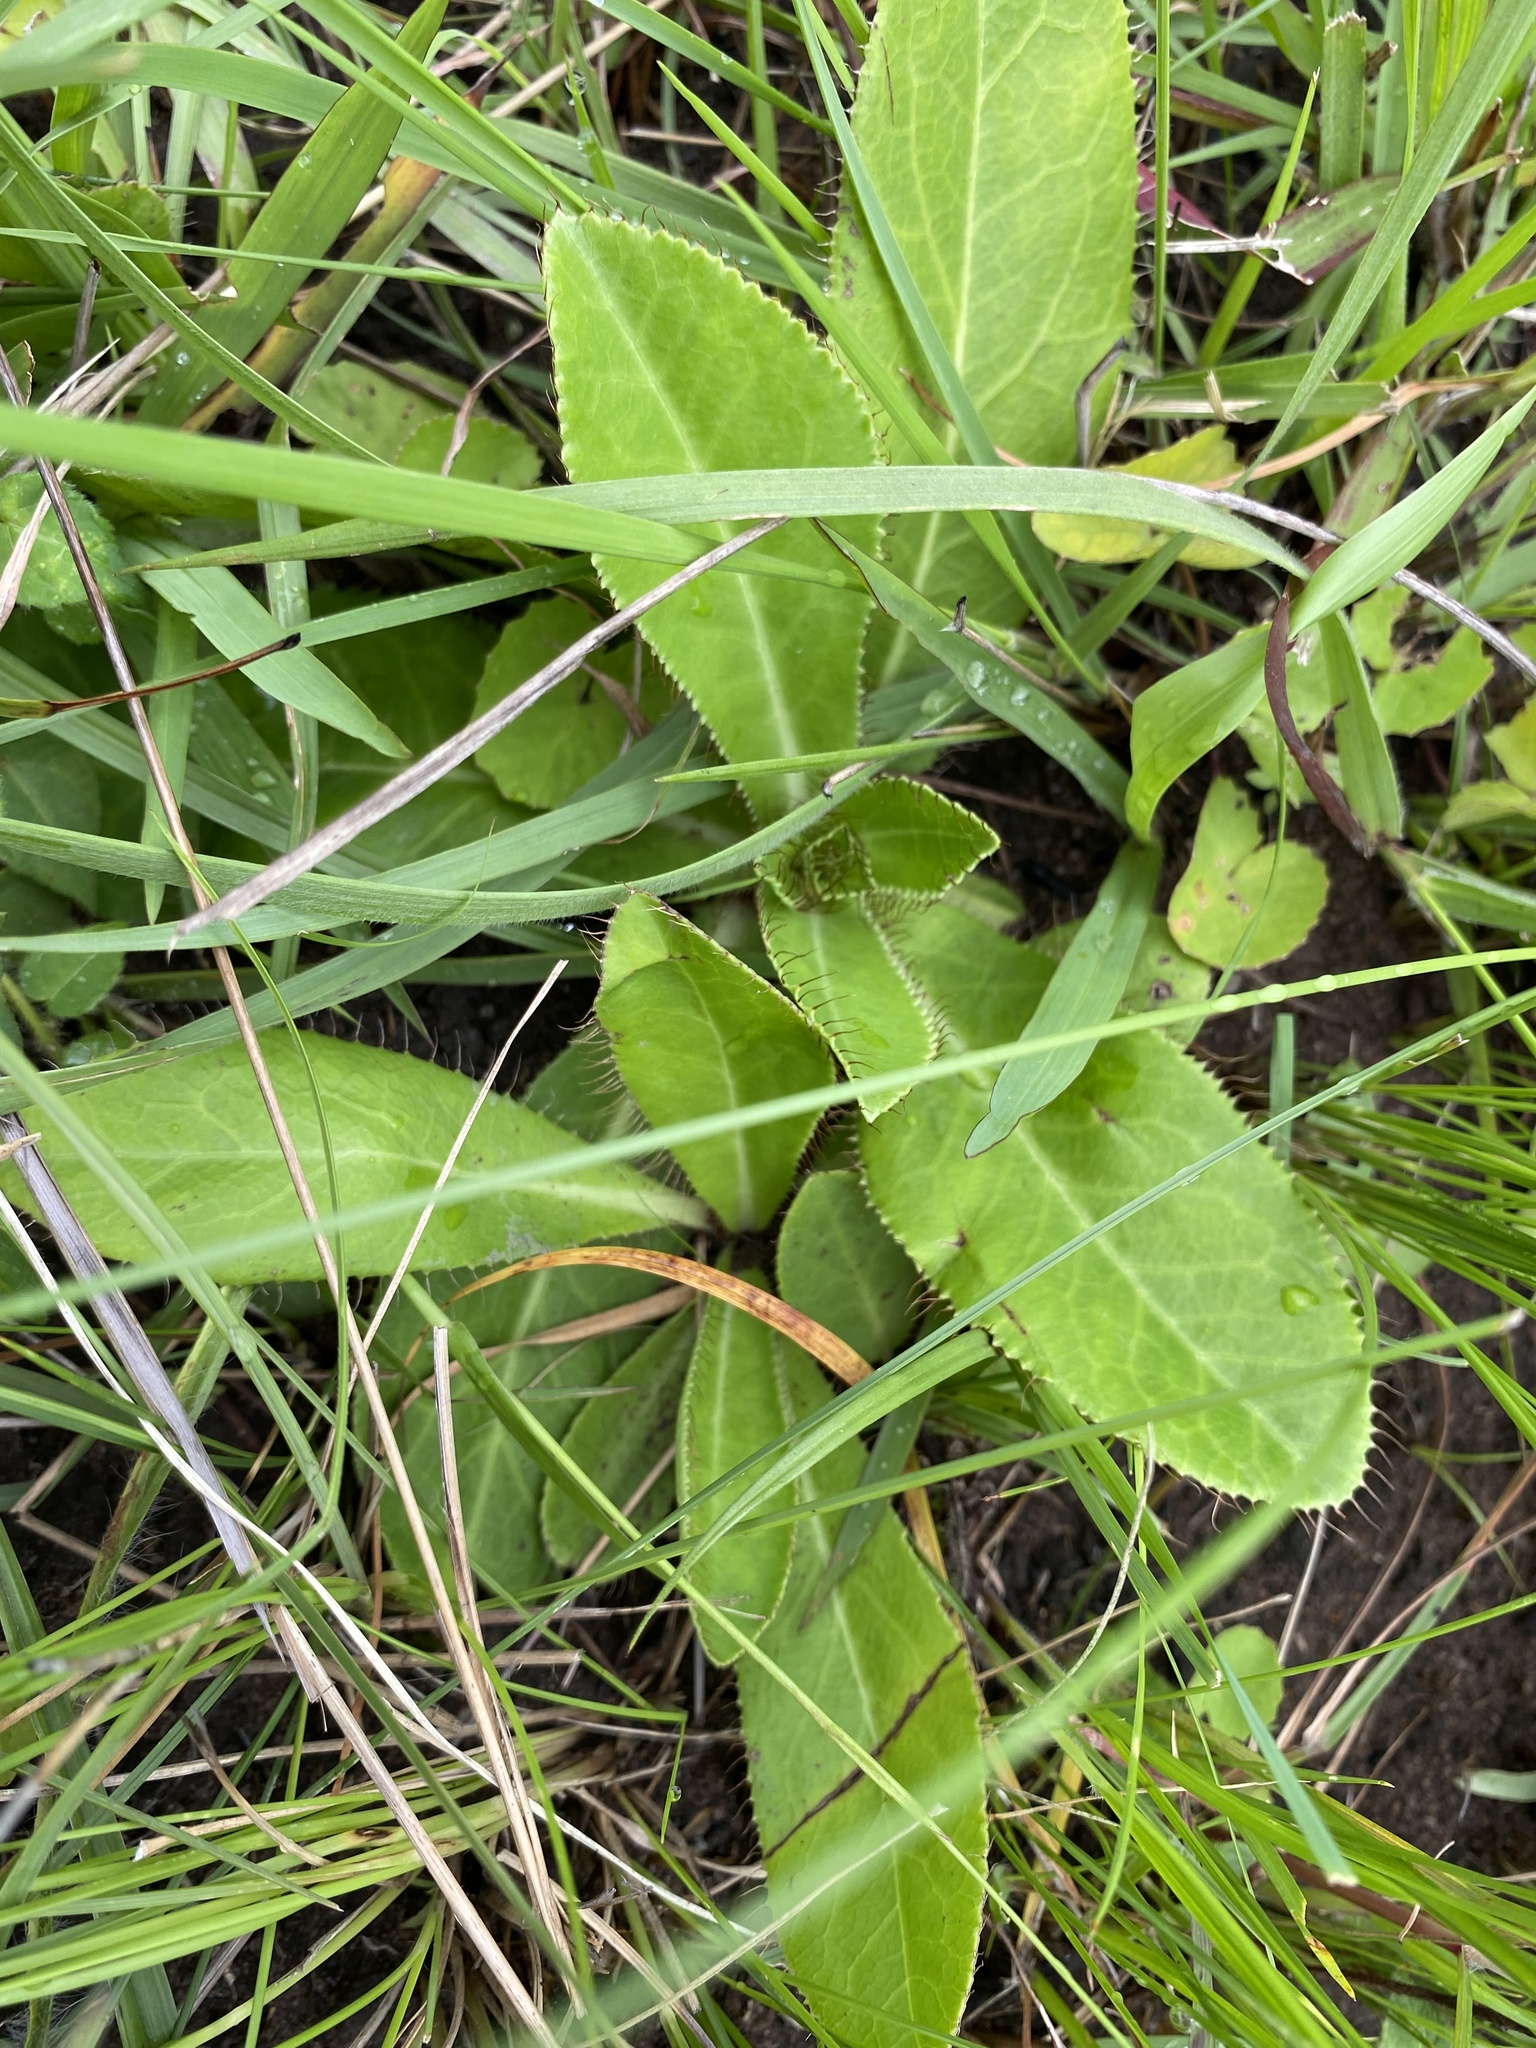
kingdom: Plantae
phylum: Tracheophyta
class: Magnoliopsida
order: Apiales
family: Apiaceae
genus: Alepidea
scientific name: Alepidea peduncularis
